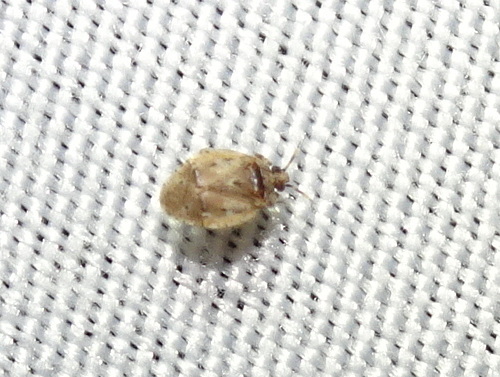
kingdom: Animalia
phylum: Arthropoda
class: Insecta
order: Hemiptera
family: Miridae
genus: Diphleps
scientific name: Diphleps unica
